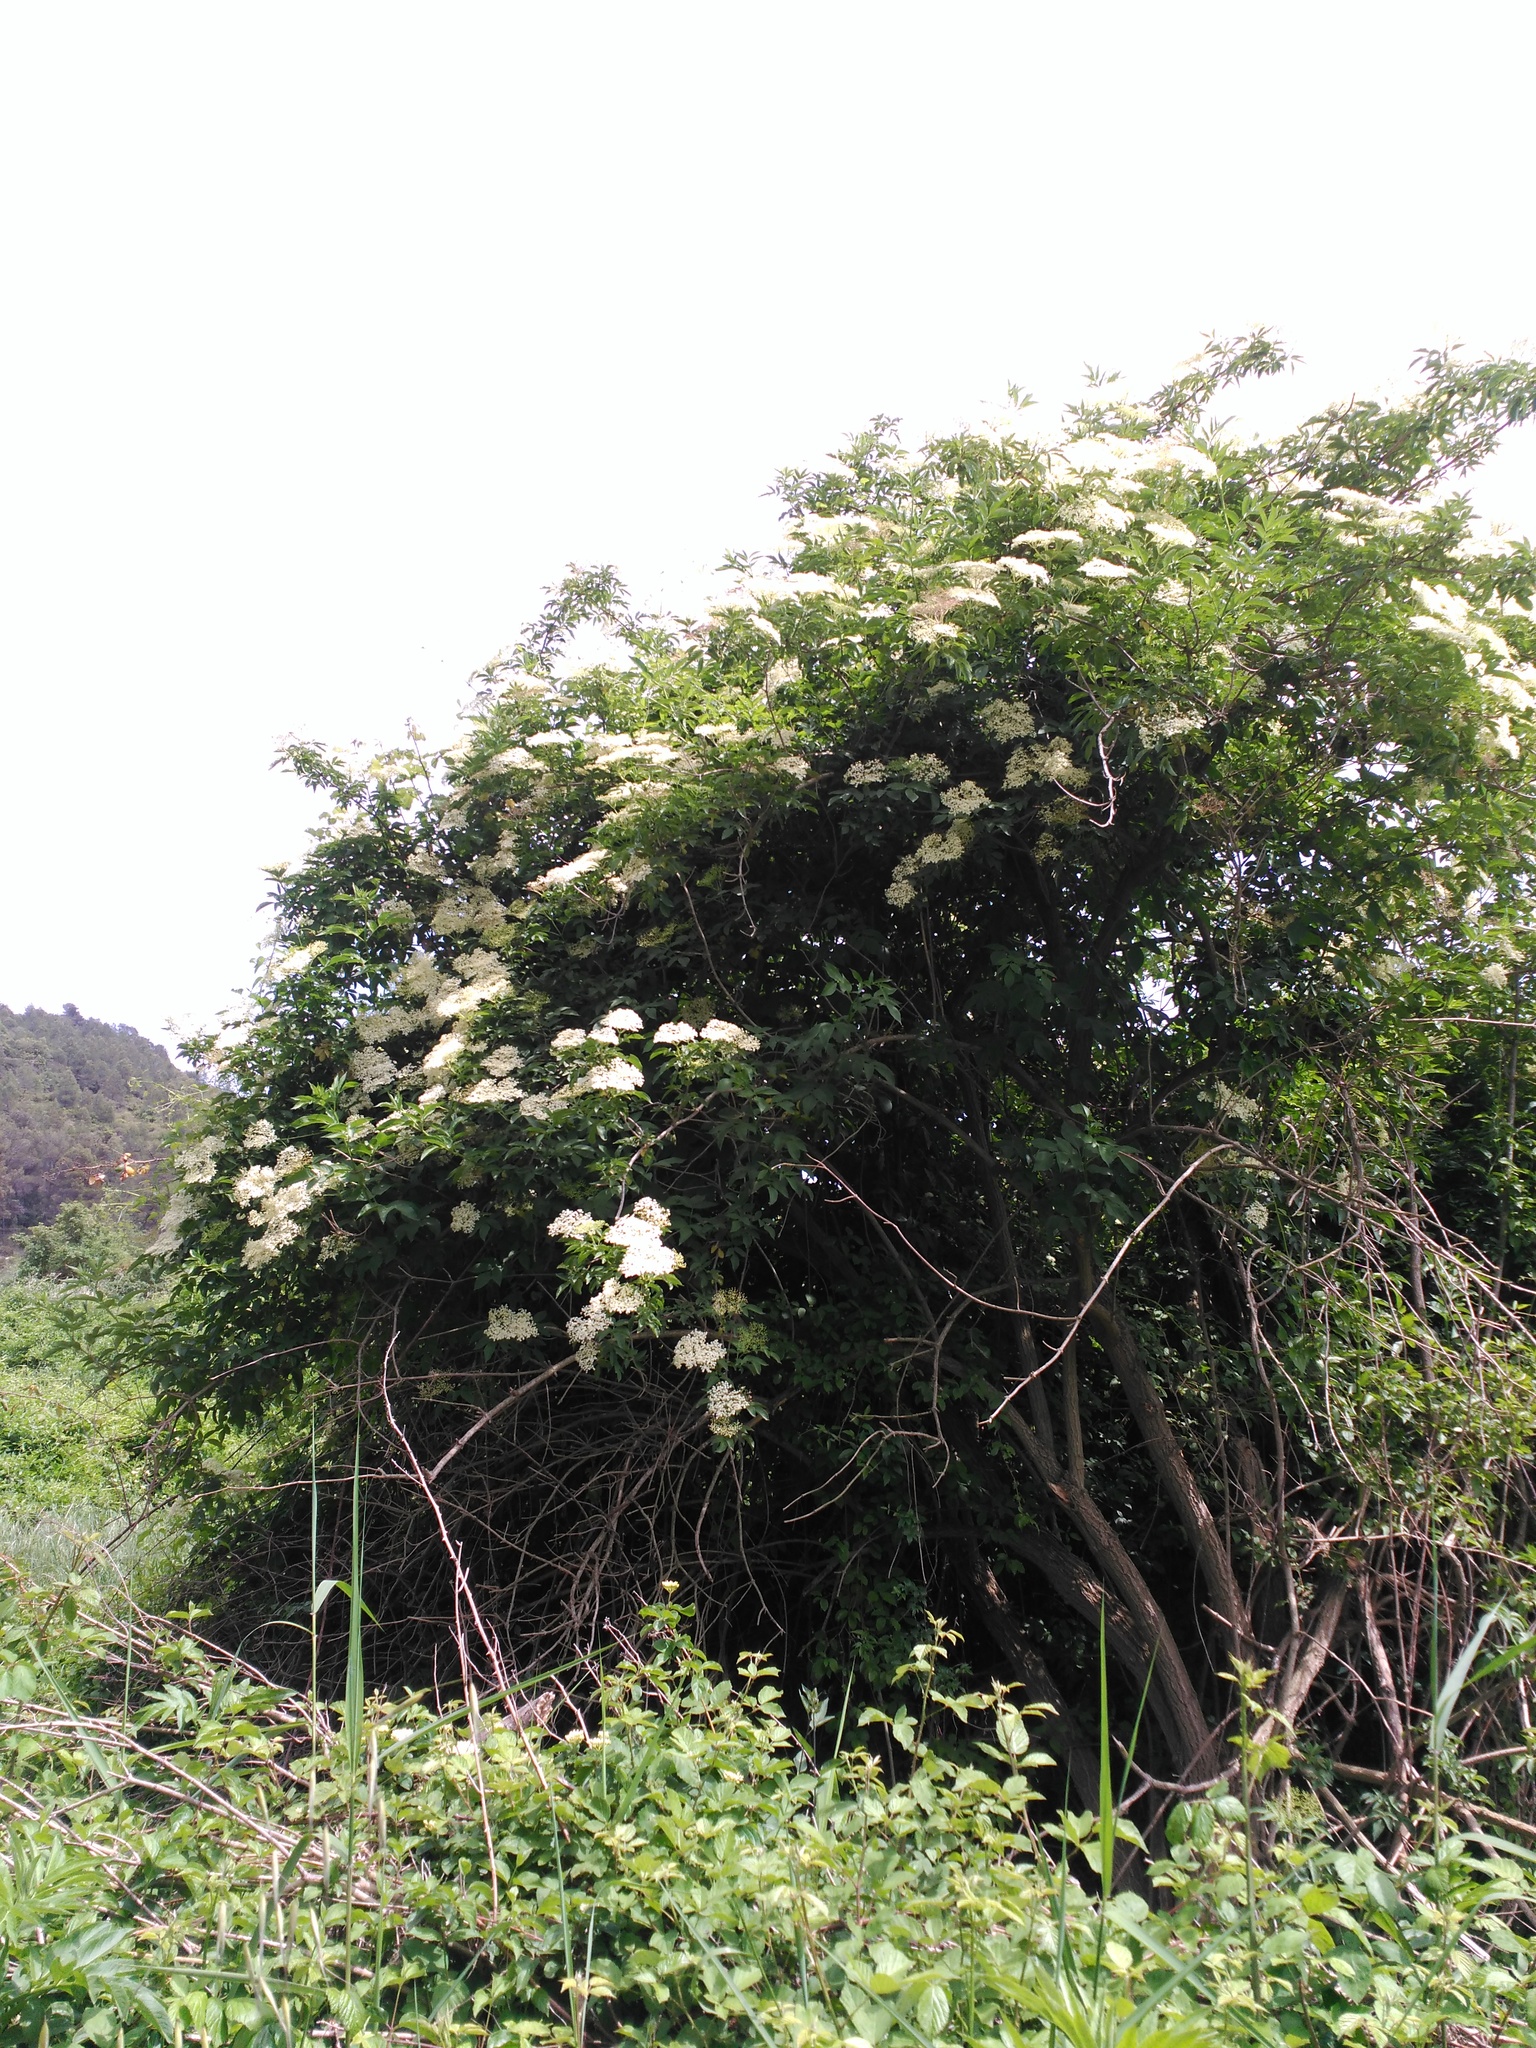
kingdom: Plantae
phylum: Tracheophyta
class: Magnoliopsida
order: Dipsacales
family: Viburnaceae
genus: Sambucus
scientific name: Sambucus nigra
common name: Elder
